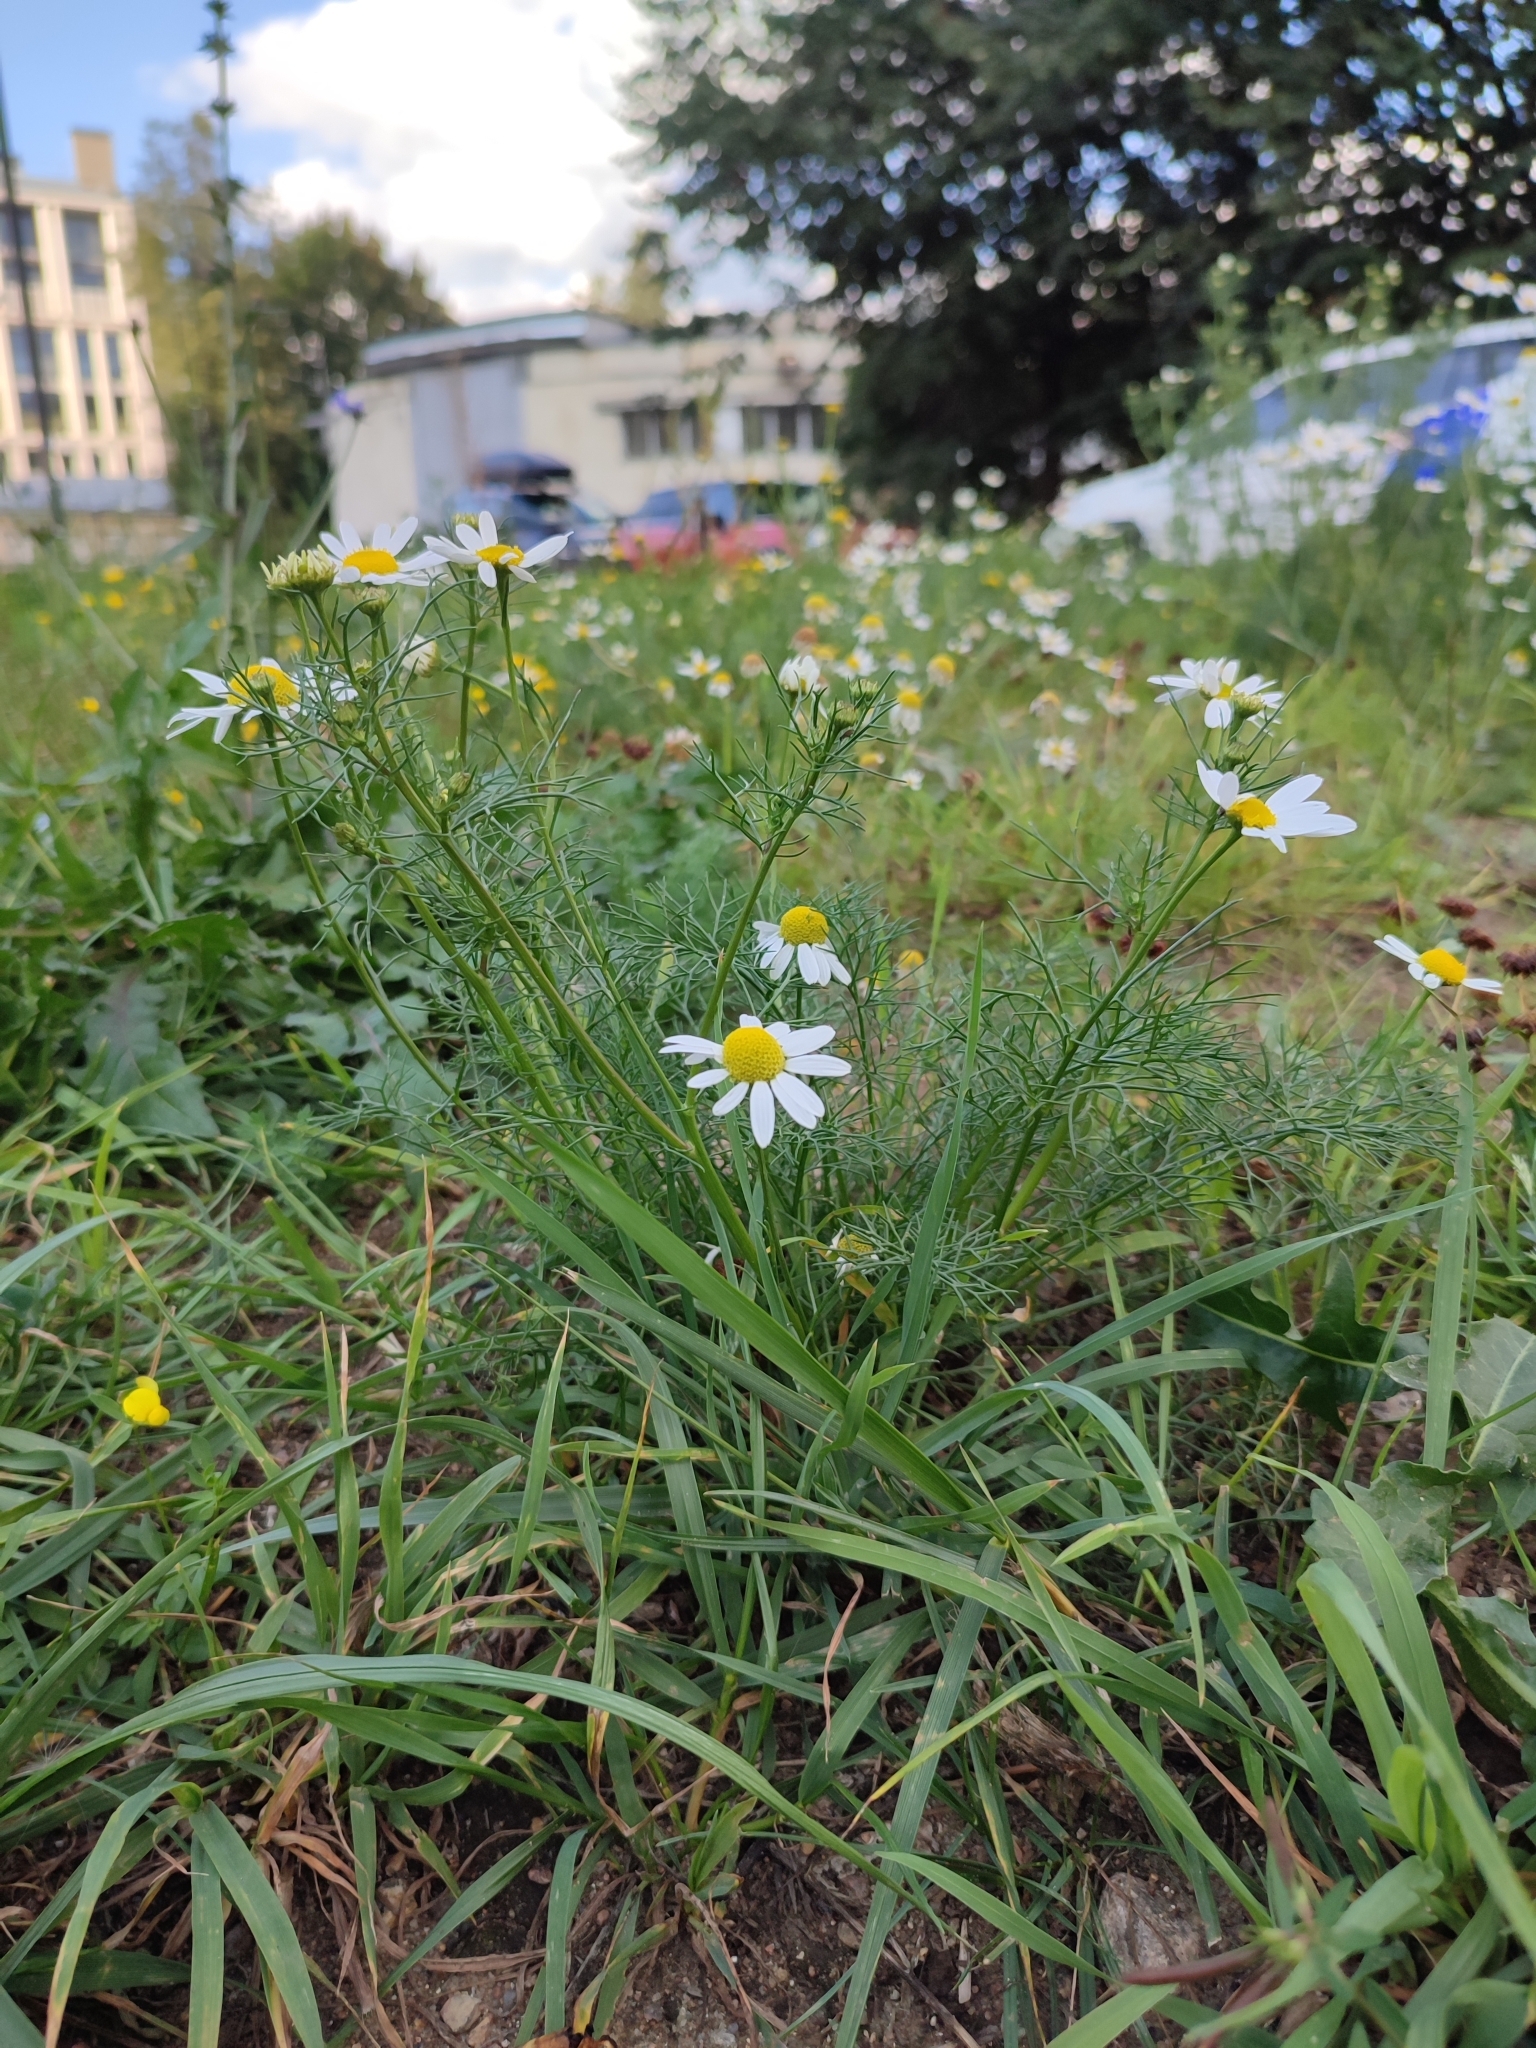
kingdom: Plantae
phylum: Tracheophyta
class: Magnoliopsida
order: Asterales
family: Asteraceae
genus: Tripleurospermum
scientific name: Tripleurospermum inodorum
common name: Scentless mayweed
